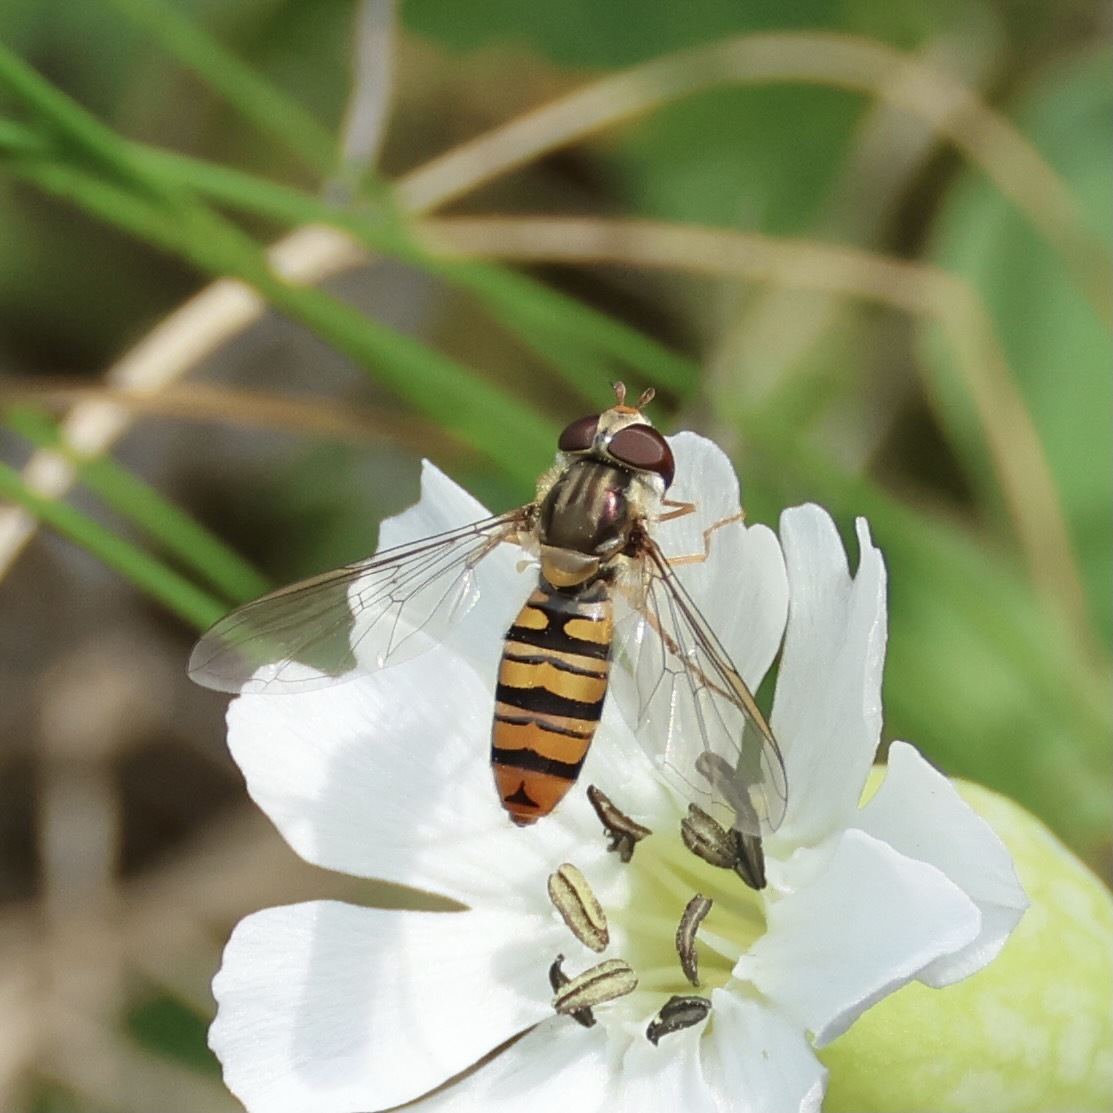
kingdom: Animalia
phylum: Arthropoda
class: Insecta
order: Diptera
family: Syrphidae
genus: Episyrphus
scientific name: Episyrphus balteatus
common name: Marmalade hoverfly
